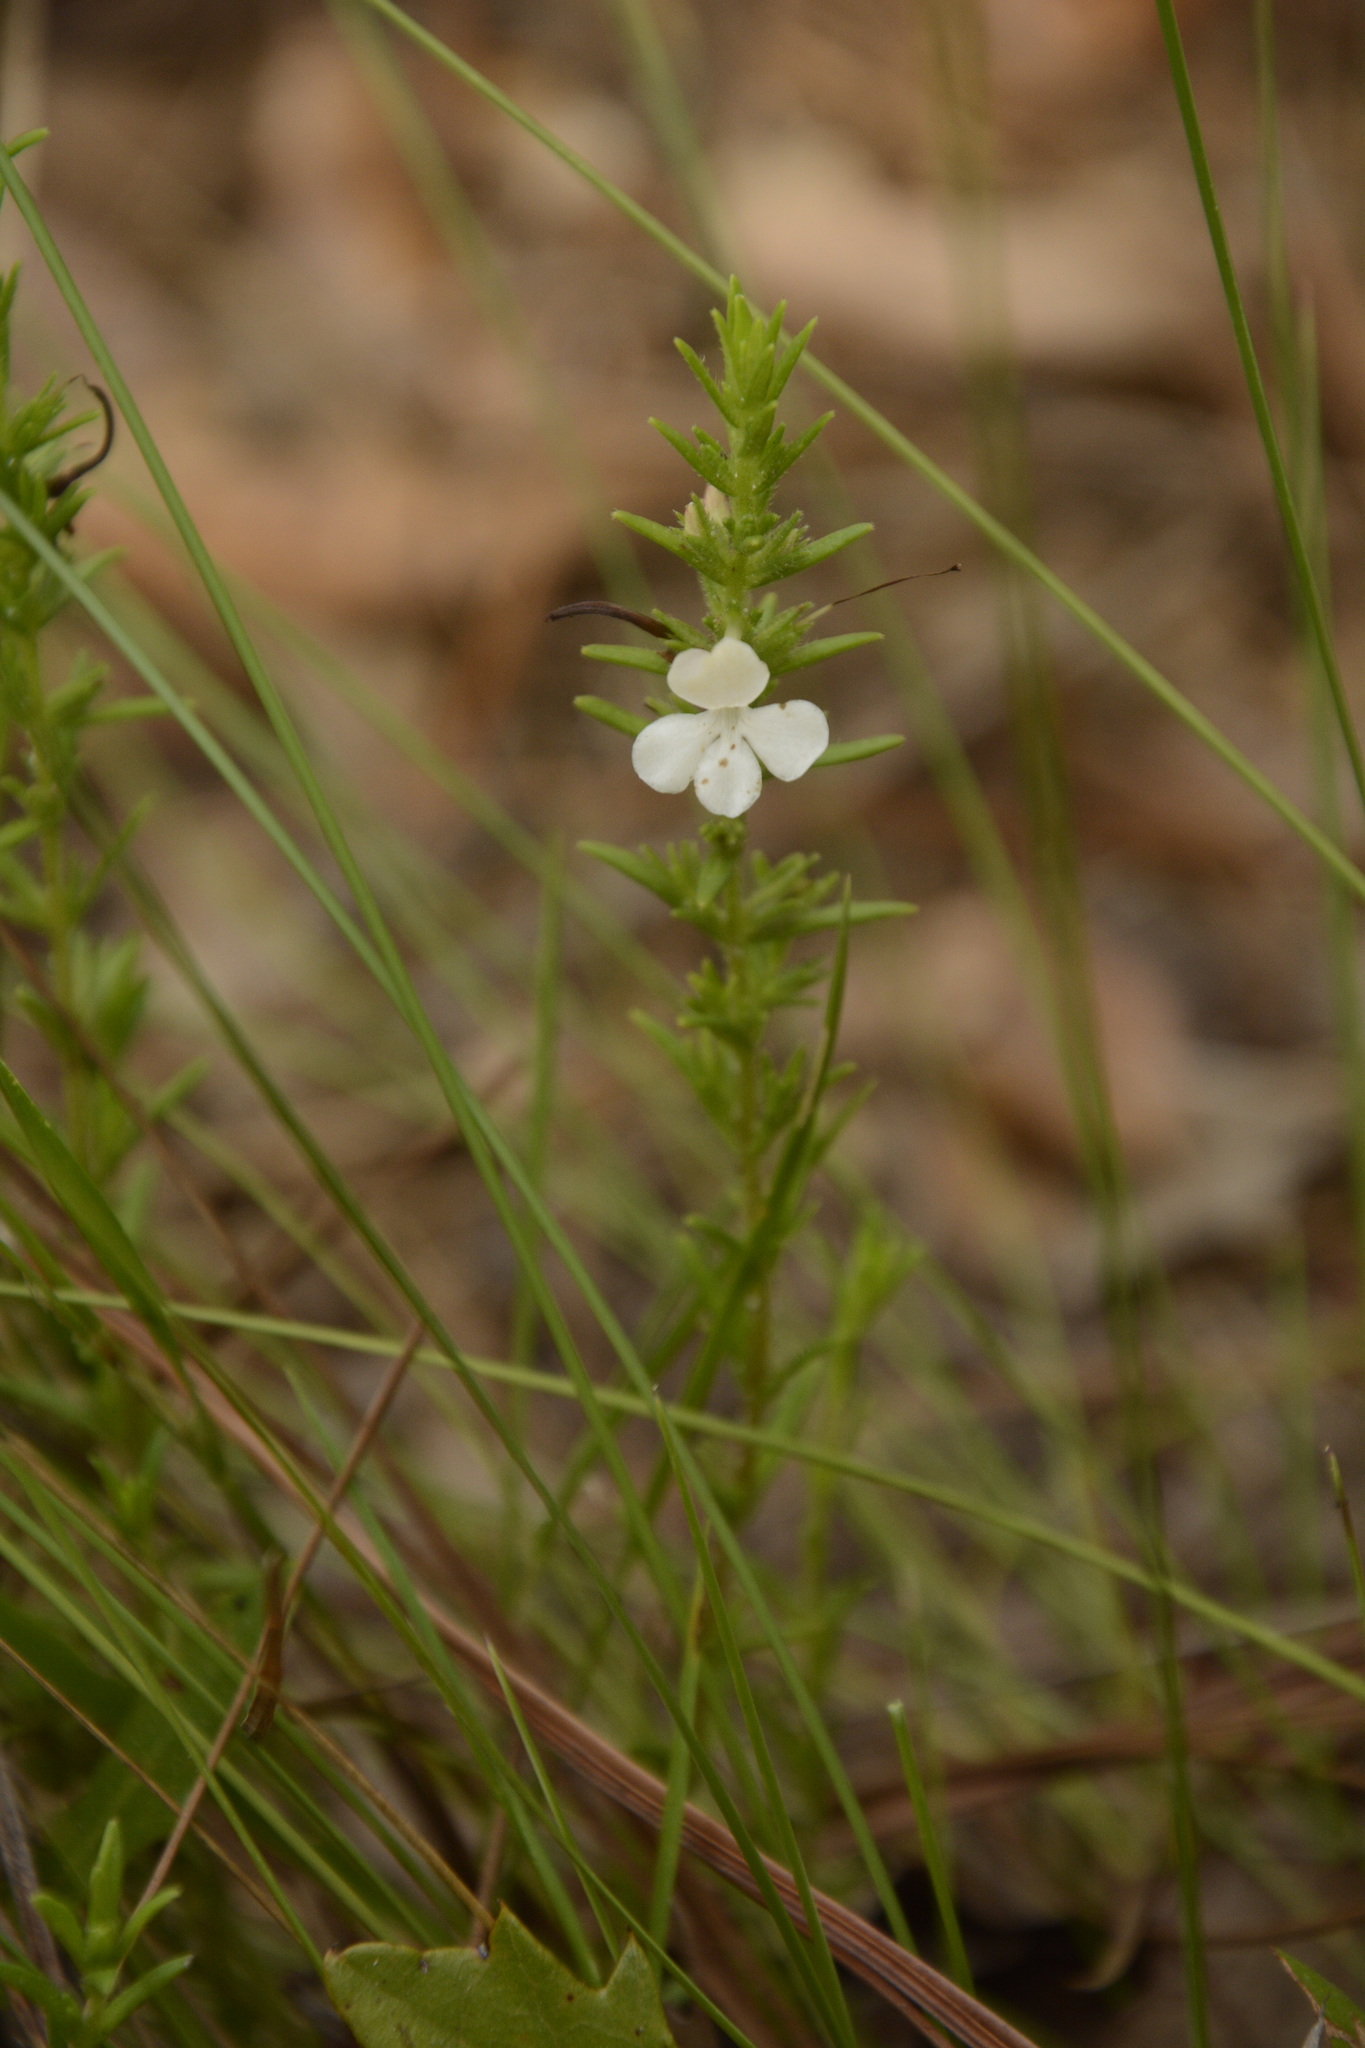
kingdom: Plantae
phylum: Tracheophyta
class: Magnoliopsida
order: Lamiales
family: Plantaginaceae
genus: Gratiola
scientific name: Gratiola hispida
